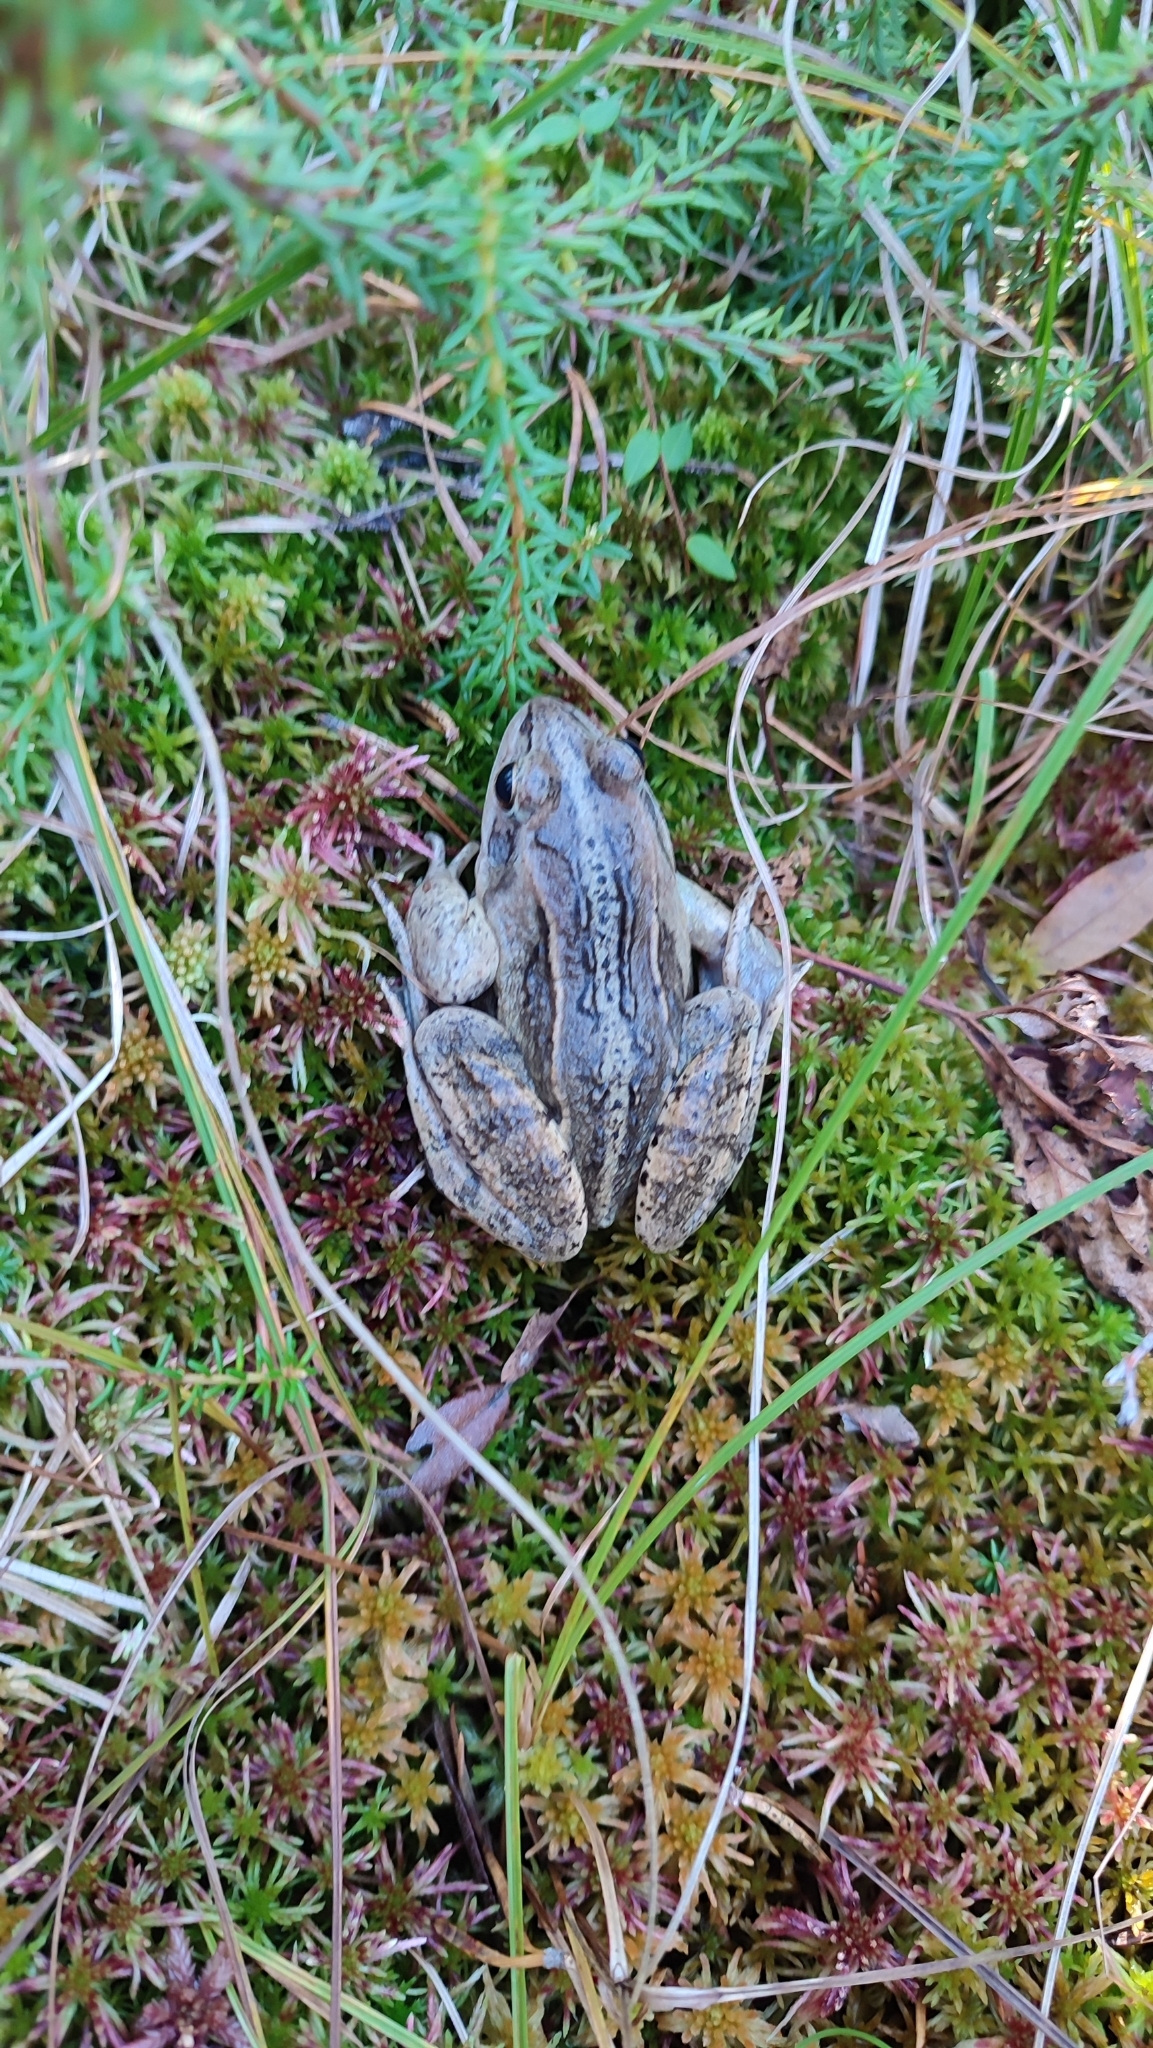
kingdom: Animalia
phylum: Chordata
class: Amphibia
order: Anura
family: Ranidae
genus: Rana
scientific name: Rana arvalis
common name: Moor frog
